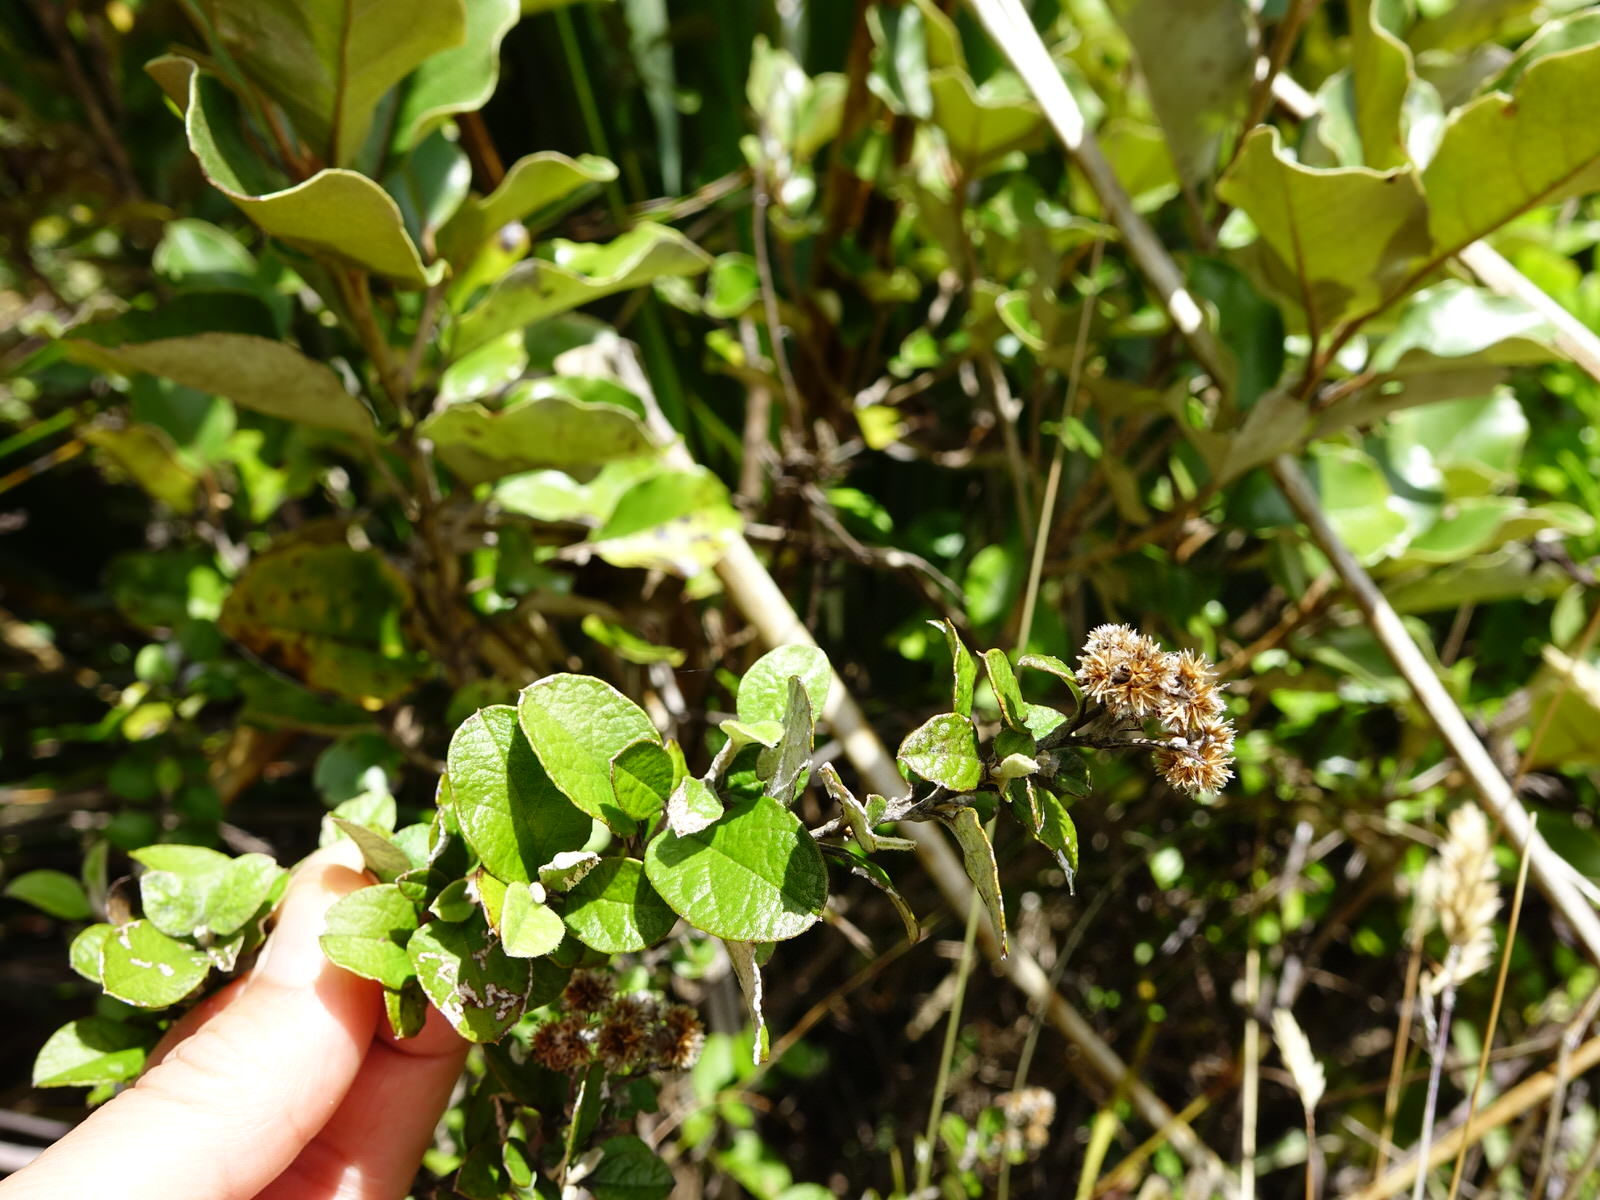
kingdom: Plantae
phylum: Tracheophyta
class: Magnoliopsida
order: Asterales
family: Asteraceae
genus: Ozothamnus
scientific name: Ozothamnus glomeratus
